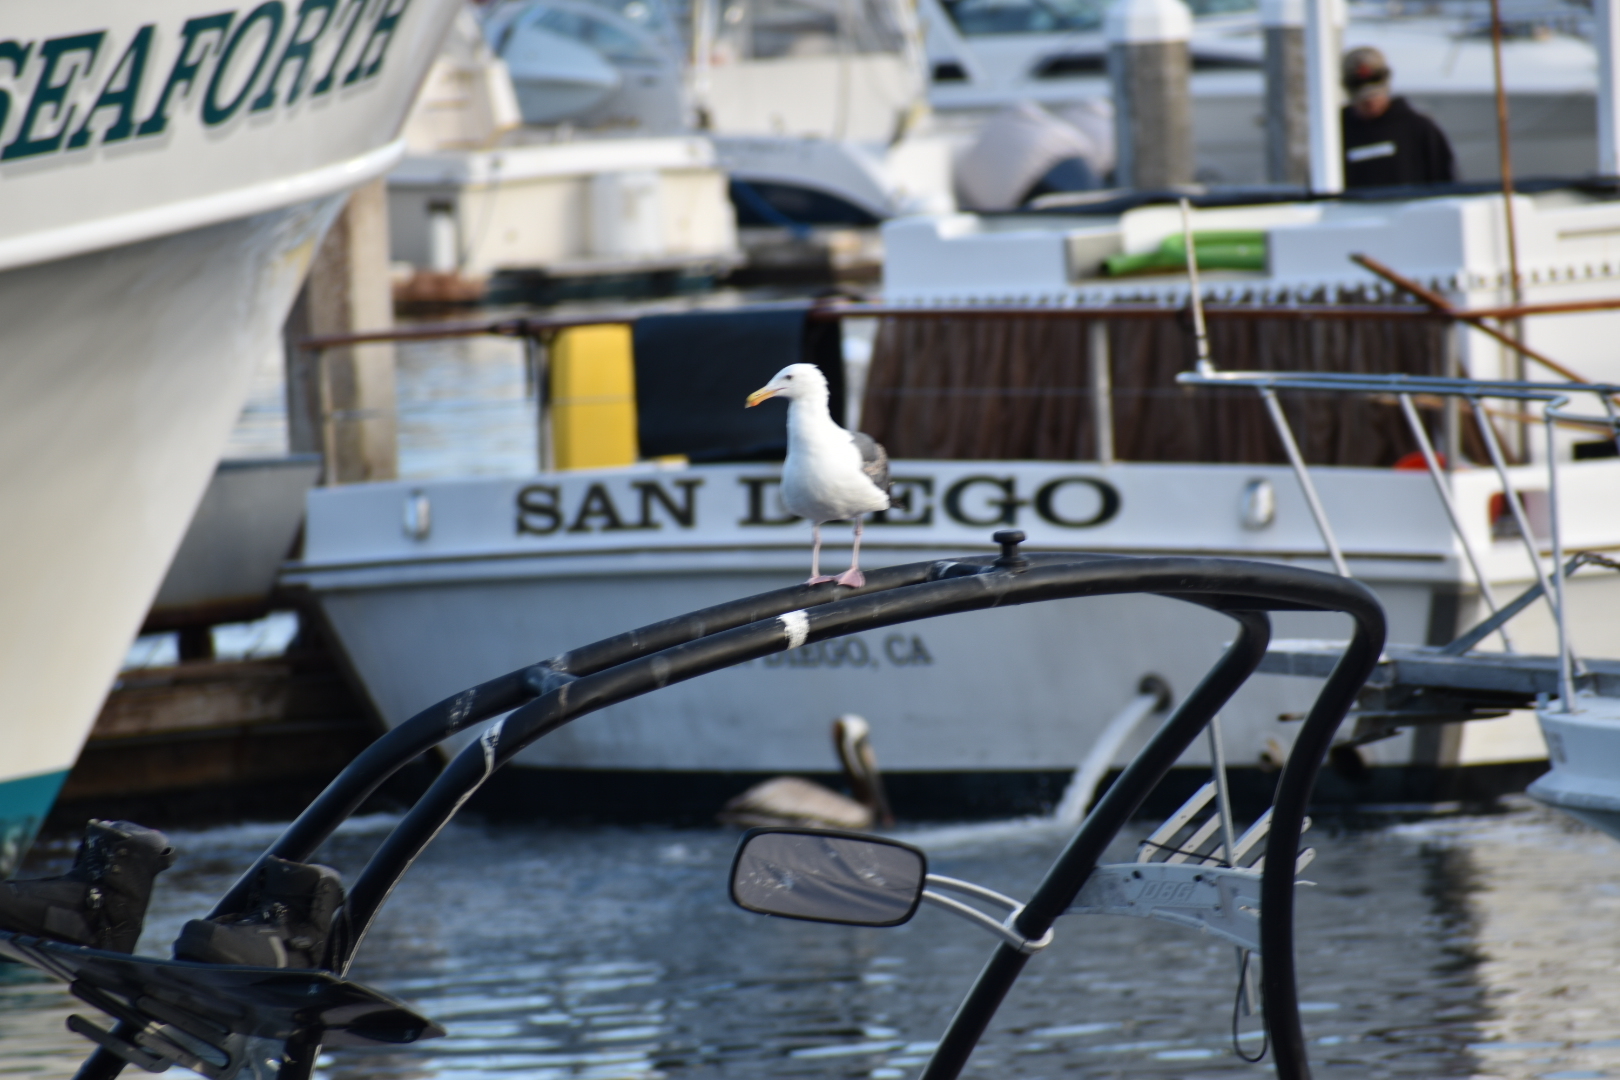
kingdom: Animalia
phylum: Chordata
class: Aves
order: Charadriiformes
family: Laridae
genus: Larus
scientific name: Larus occidentalis
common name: Western gull
